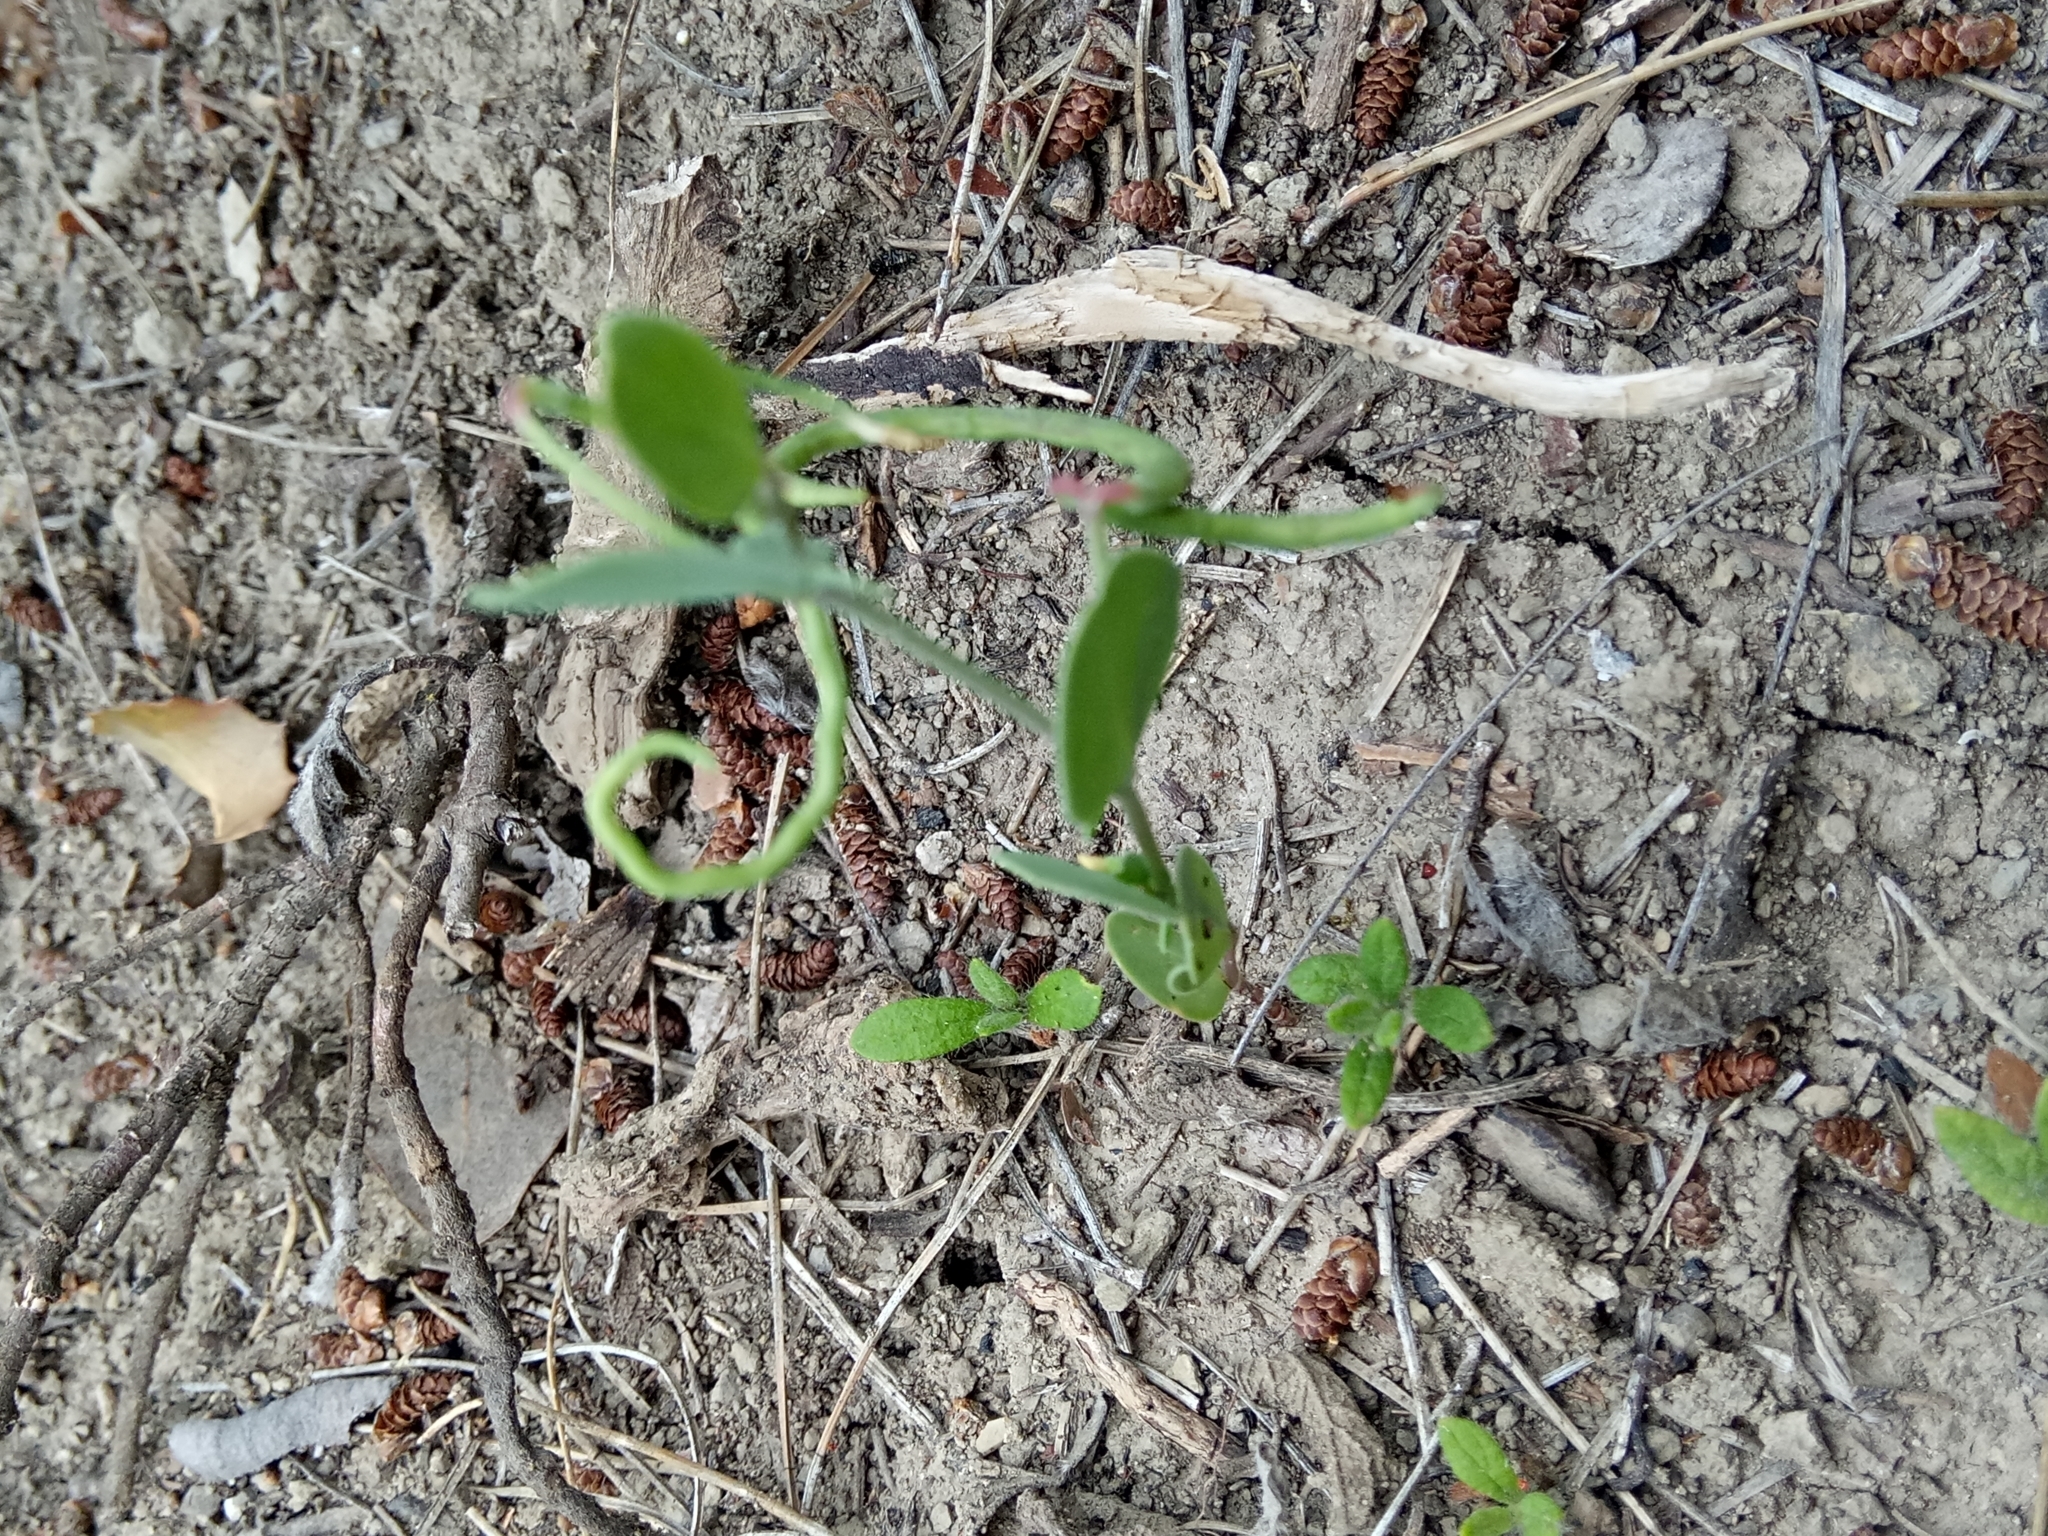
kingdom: Plantae
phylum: Tracheophyta
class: Magnoliopsida
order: Fabales
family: Fabaceae
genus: Coronilla
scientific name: Coronilla scorpioides
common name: Annual scorpion-vetch
